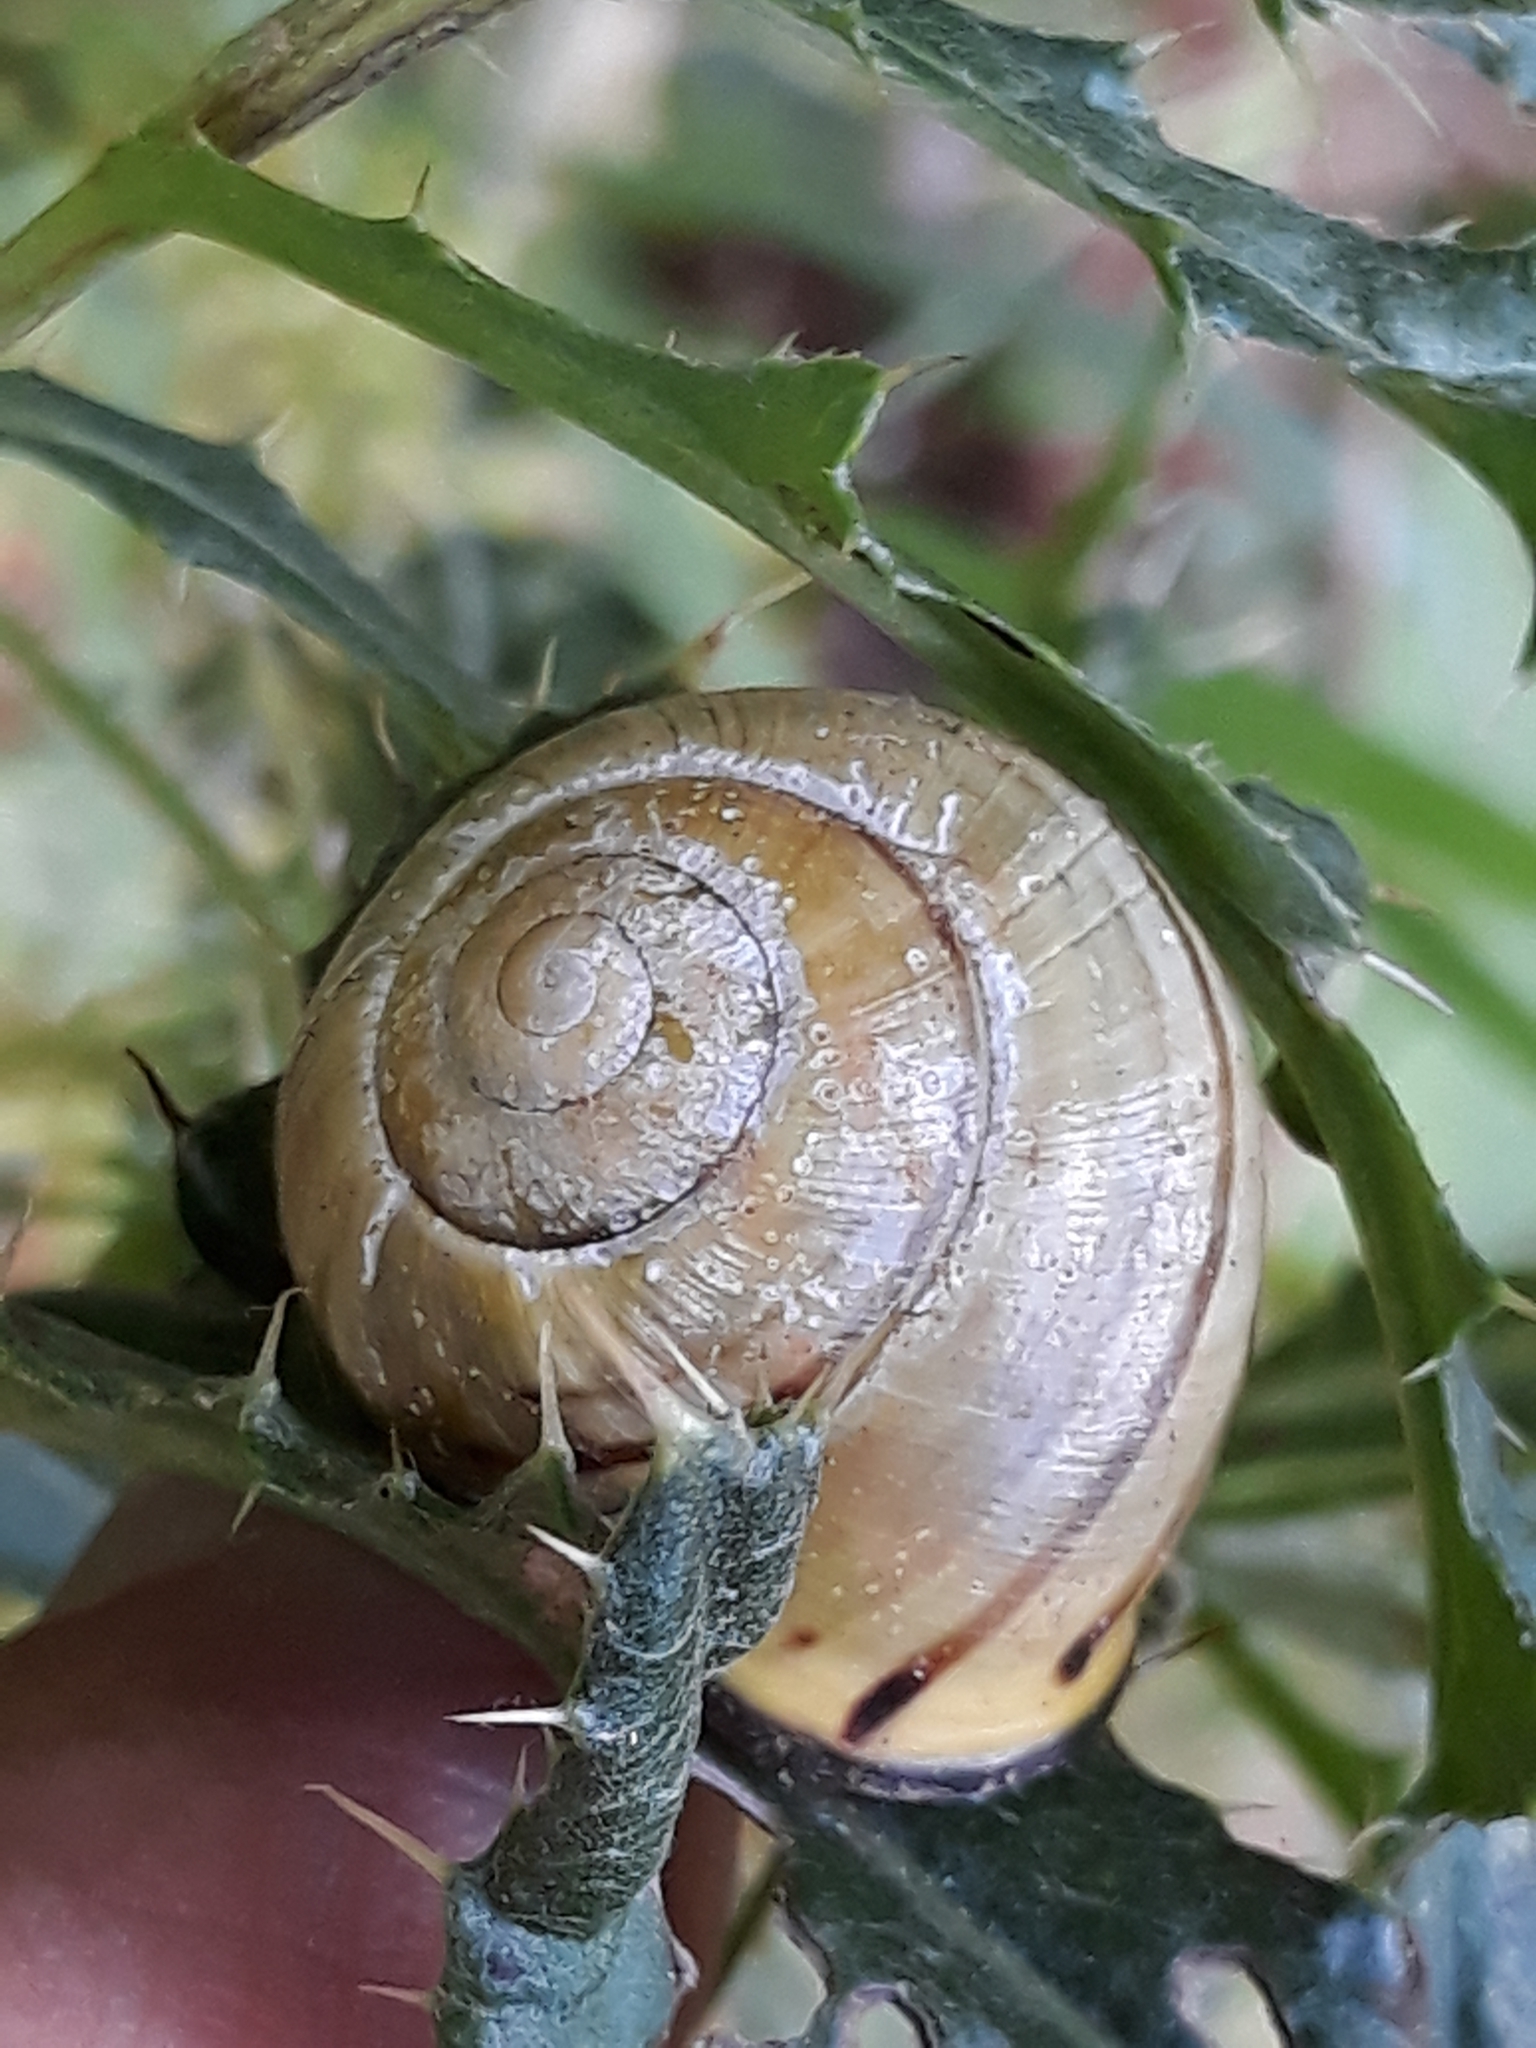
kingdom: Animalia
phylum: Mollusca
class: Gastropoda
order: Stylommatophora
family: Helicidae
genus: Cepaea
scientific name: Cepaea nemoralis
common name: Grovesnail
